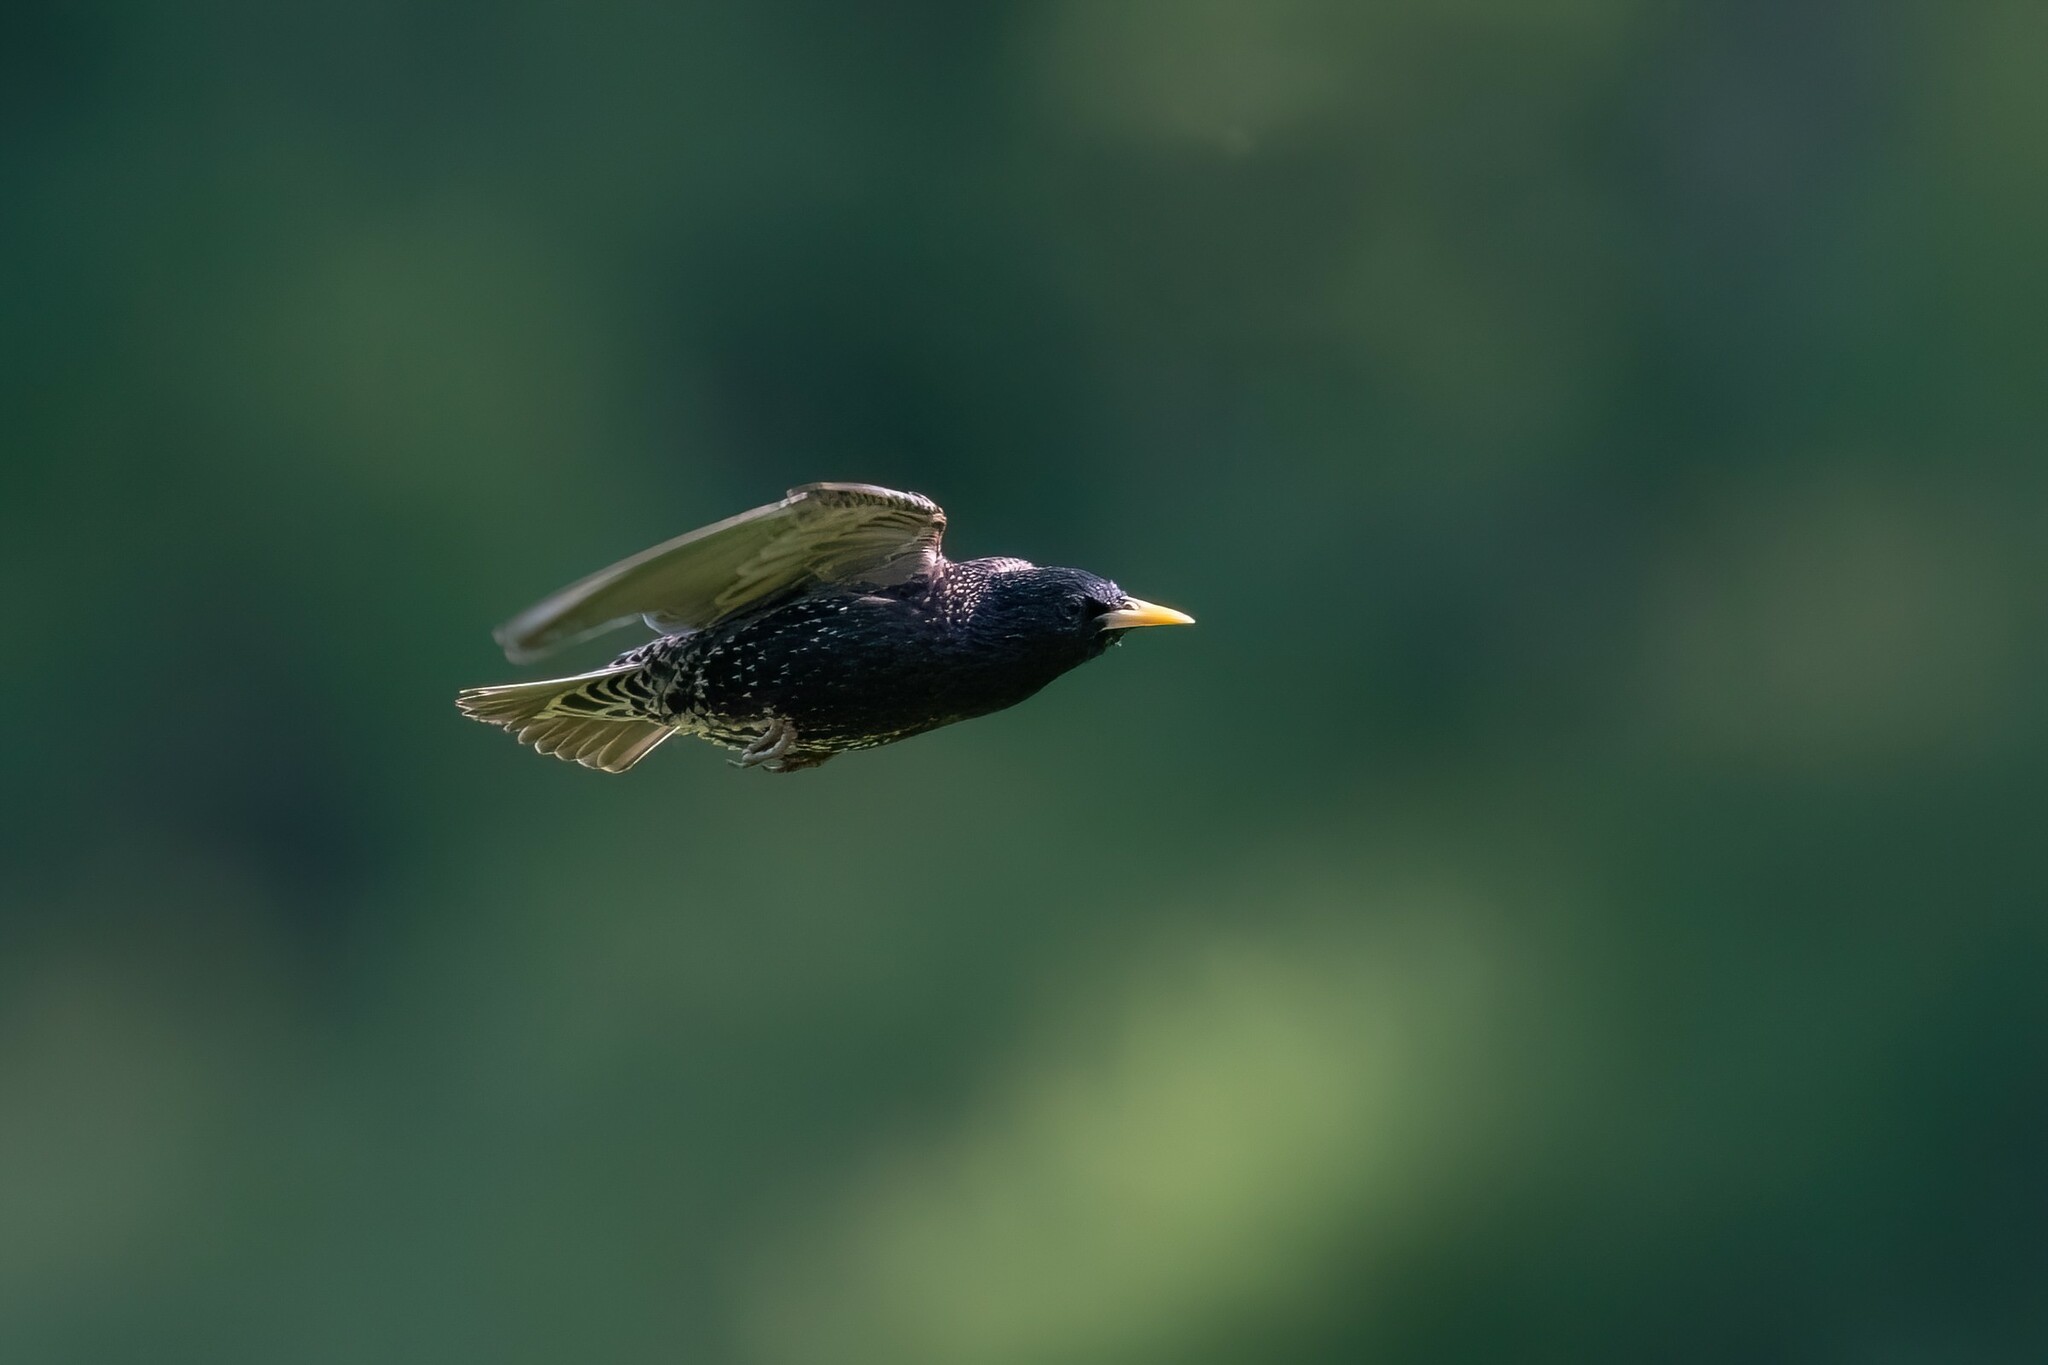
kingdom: Animalia
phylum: Chordata
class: Aves
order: Passeriformes
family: Sturnidae
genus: Sturnus
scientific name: Sturnus vulgaris
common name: Common starling
